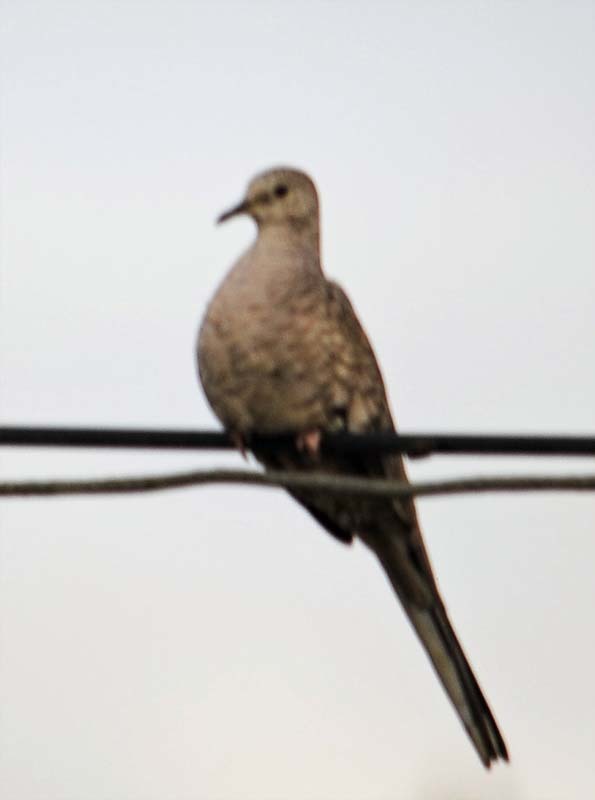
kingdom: Animalia
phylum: Chordata
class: Aves
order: Columbiformes
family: Columbidae
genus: Columbina
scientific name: Columbina inca
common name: Inca dove
